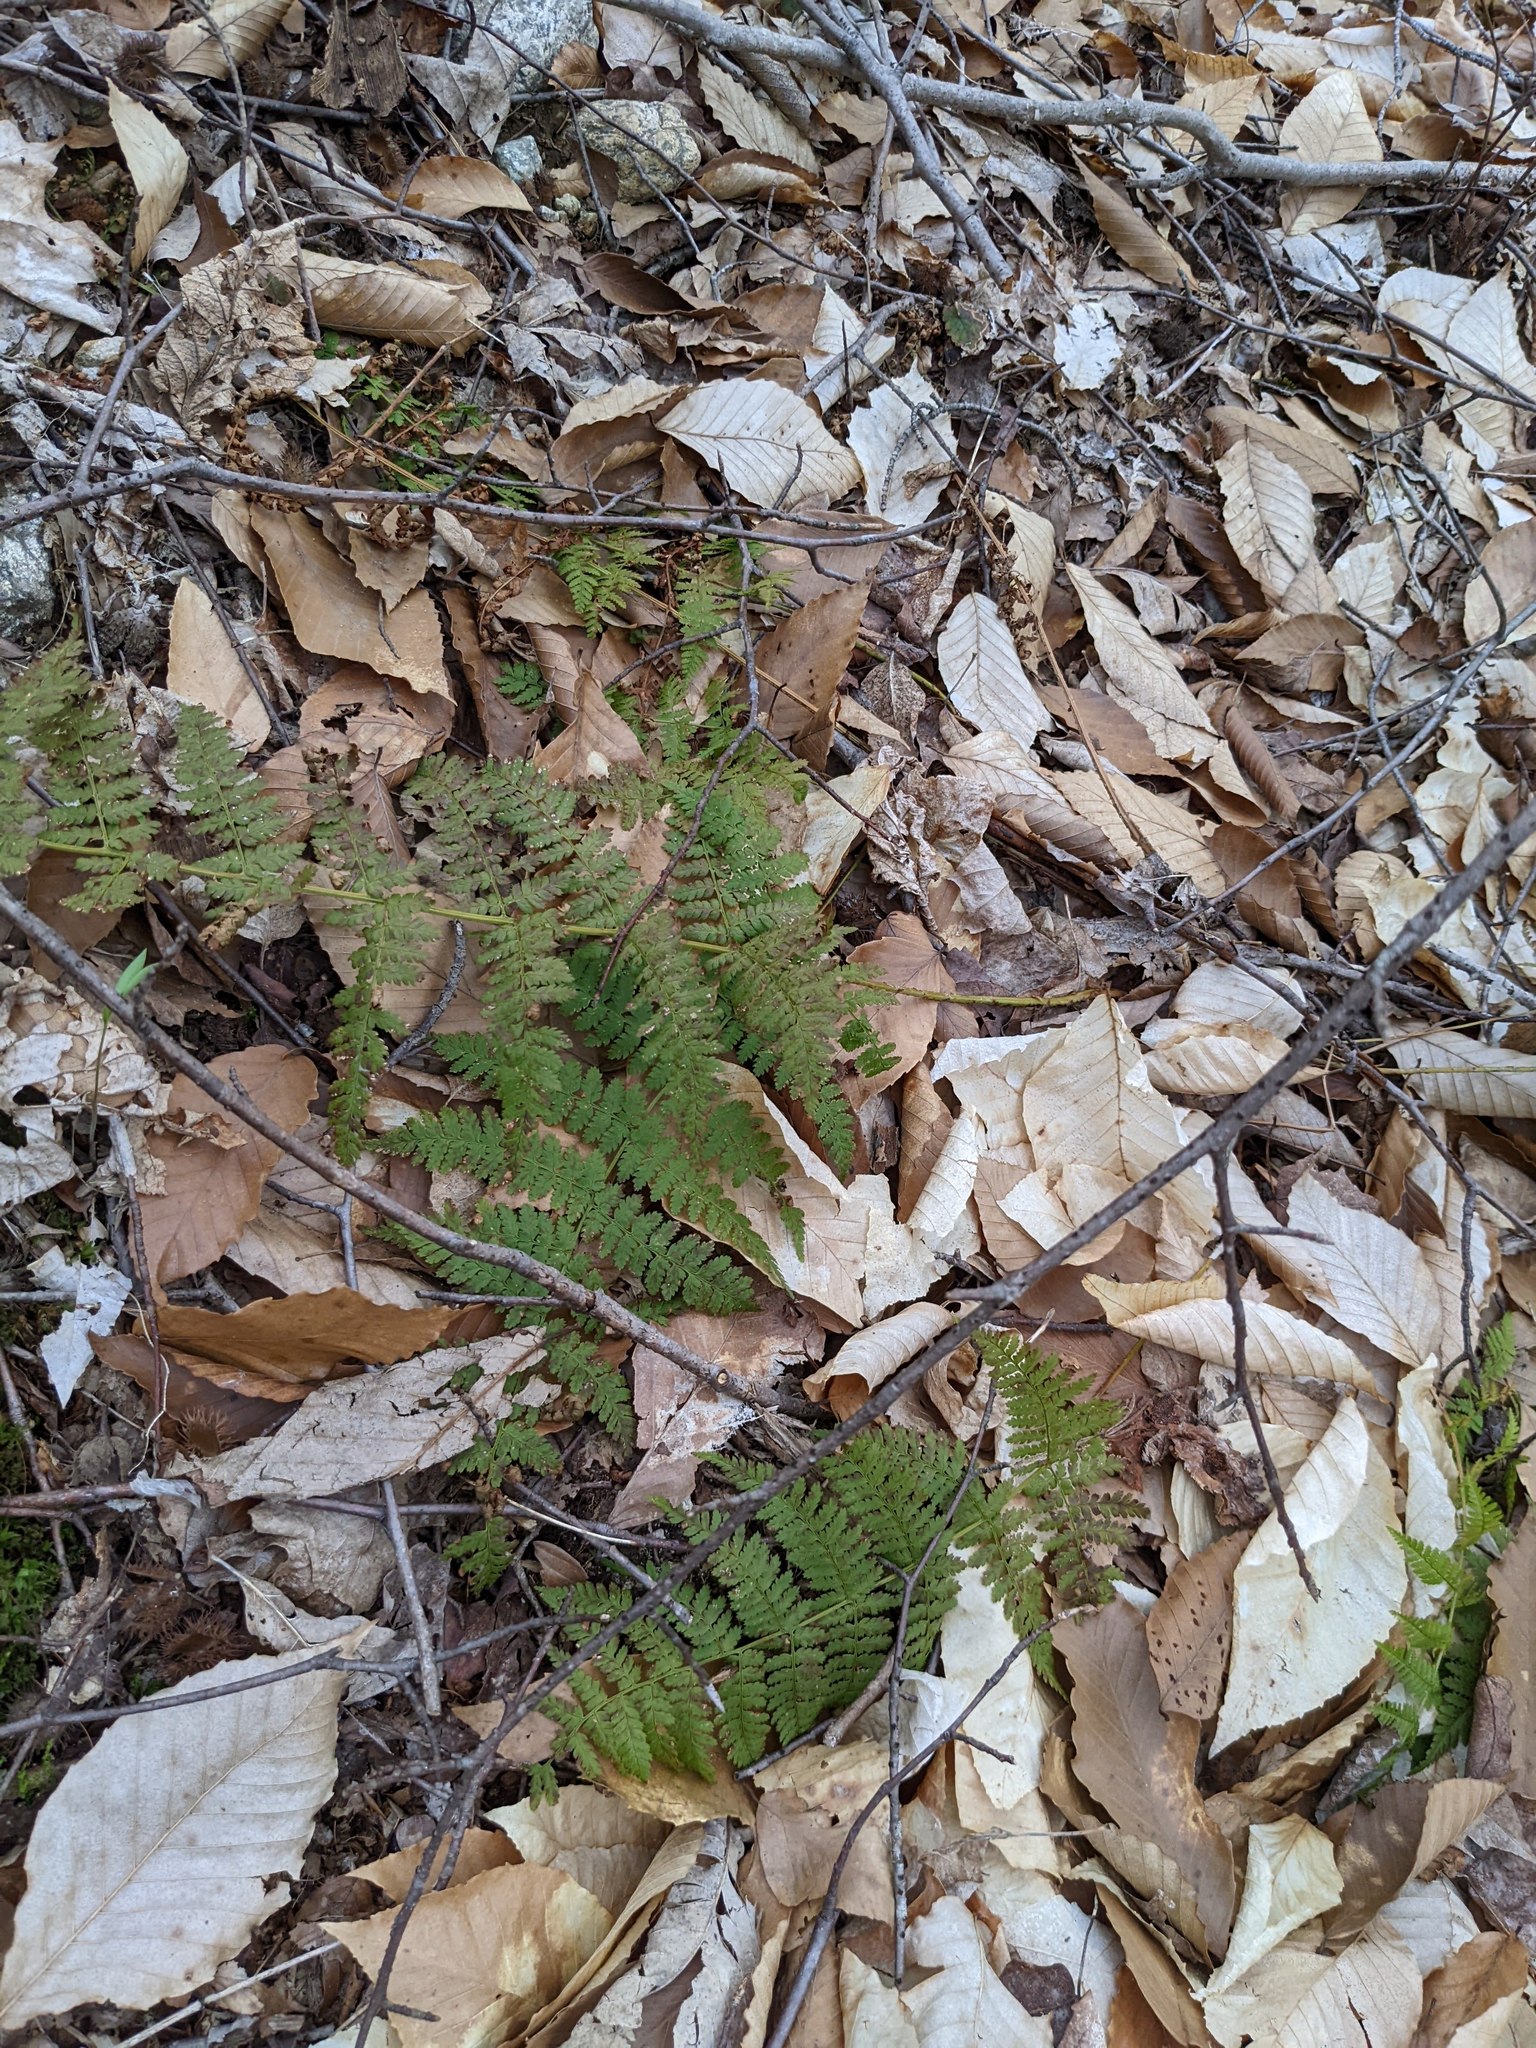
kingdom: Plantae
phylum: Tracheophyta
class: Polypodiopsida
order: Polypodiales
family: Dryopteridaceae
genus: Dryopteris
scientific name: Dryopteris intermedia
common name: Evergreen wood fern
